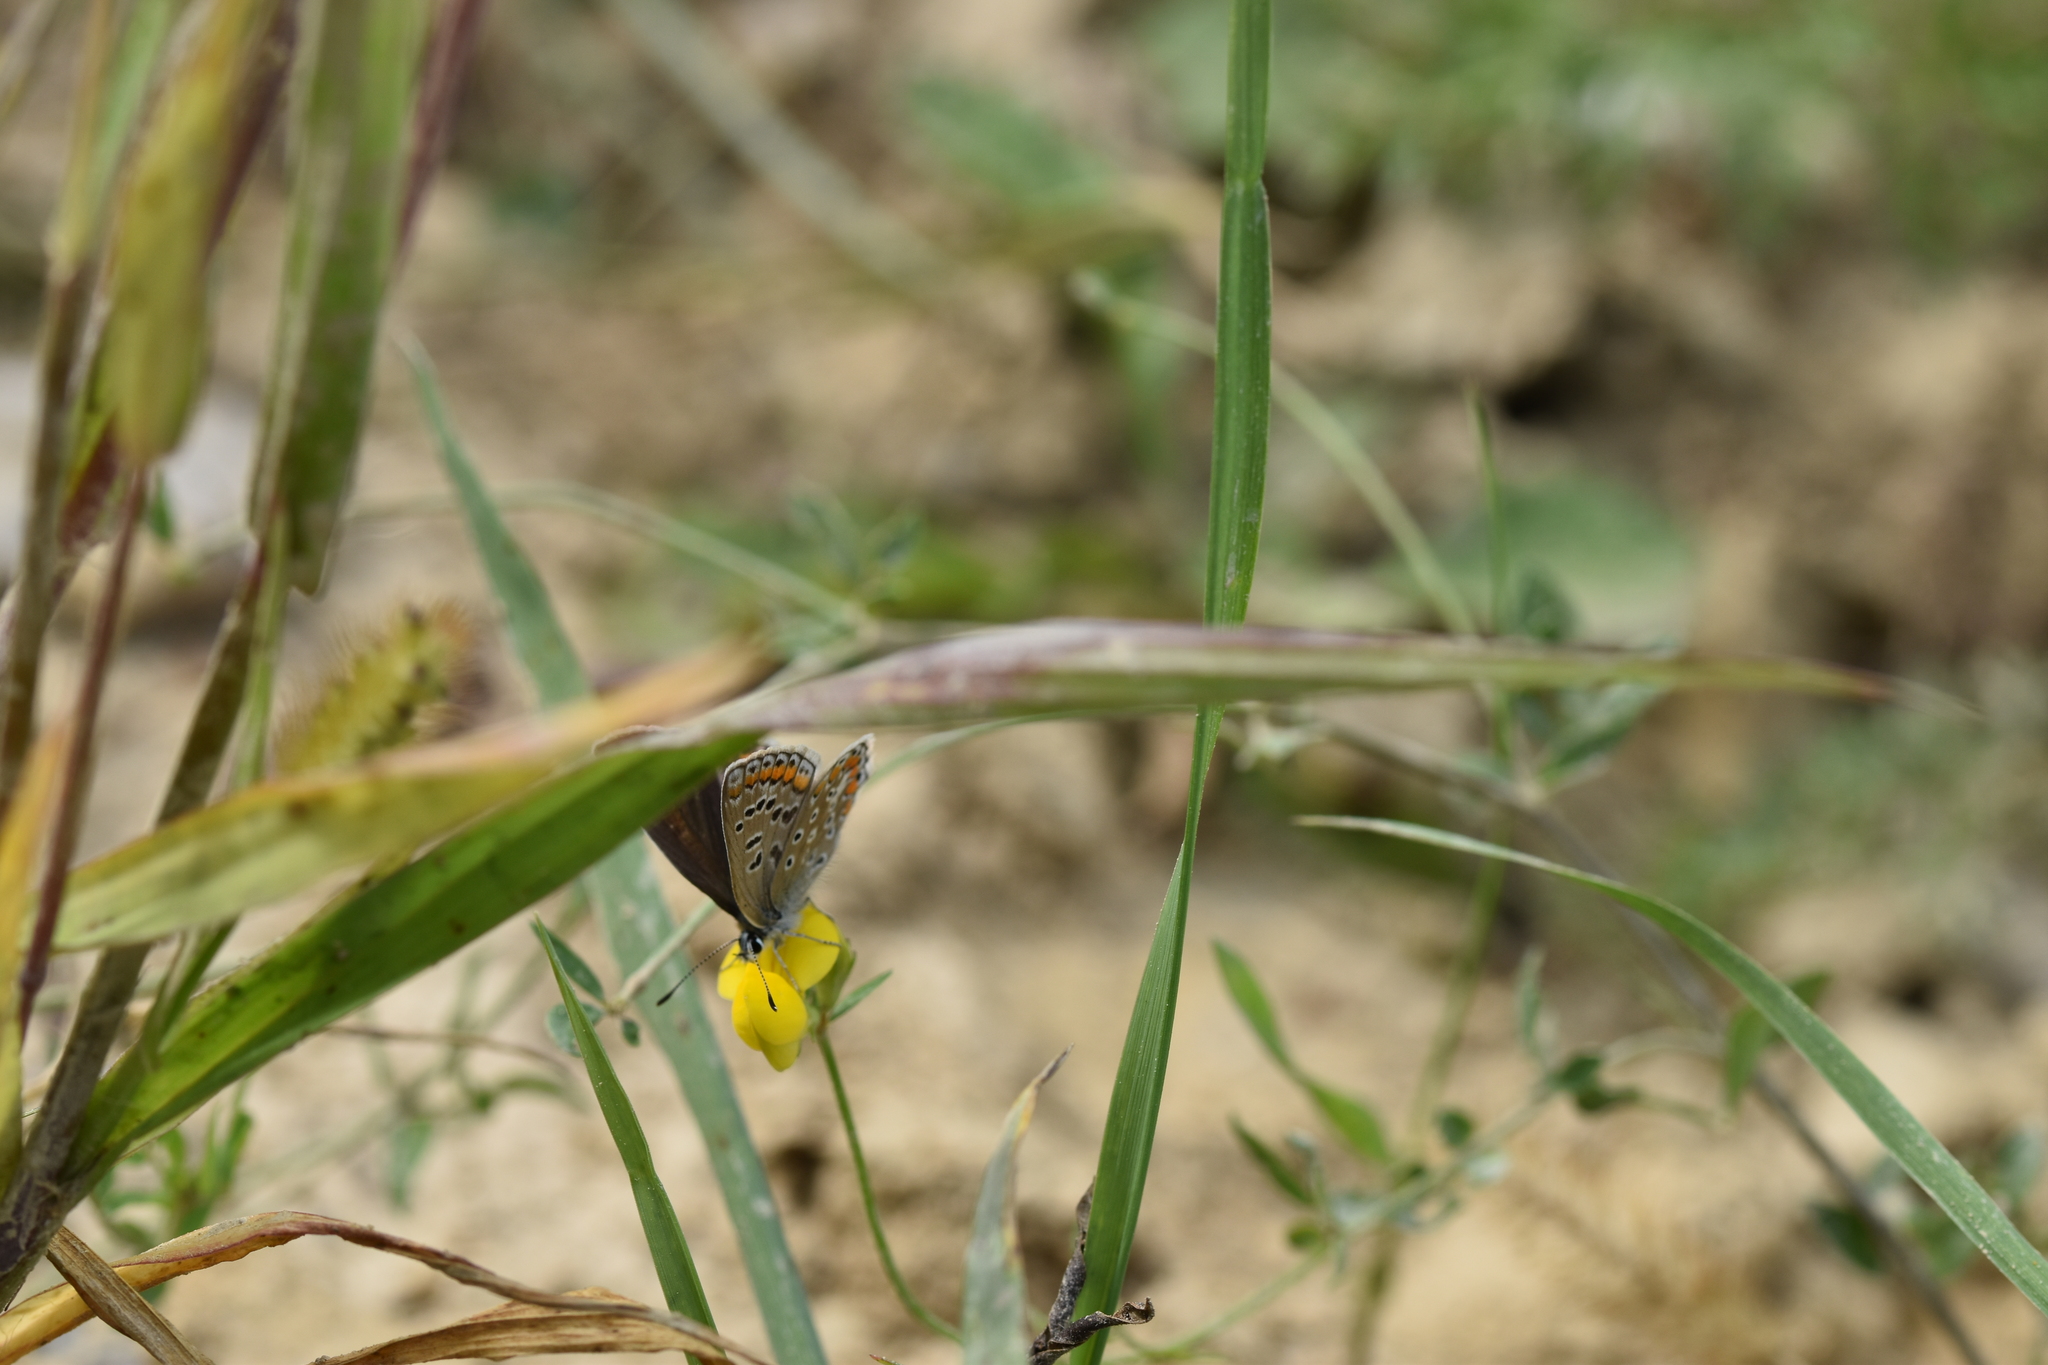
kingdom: Animalia
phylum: Arthropoda
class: Insecta
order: Lepidoptera
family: Lycaenidae
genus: Polyommatus
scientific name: Polyommatus icarus
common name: Common blue
